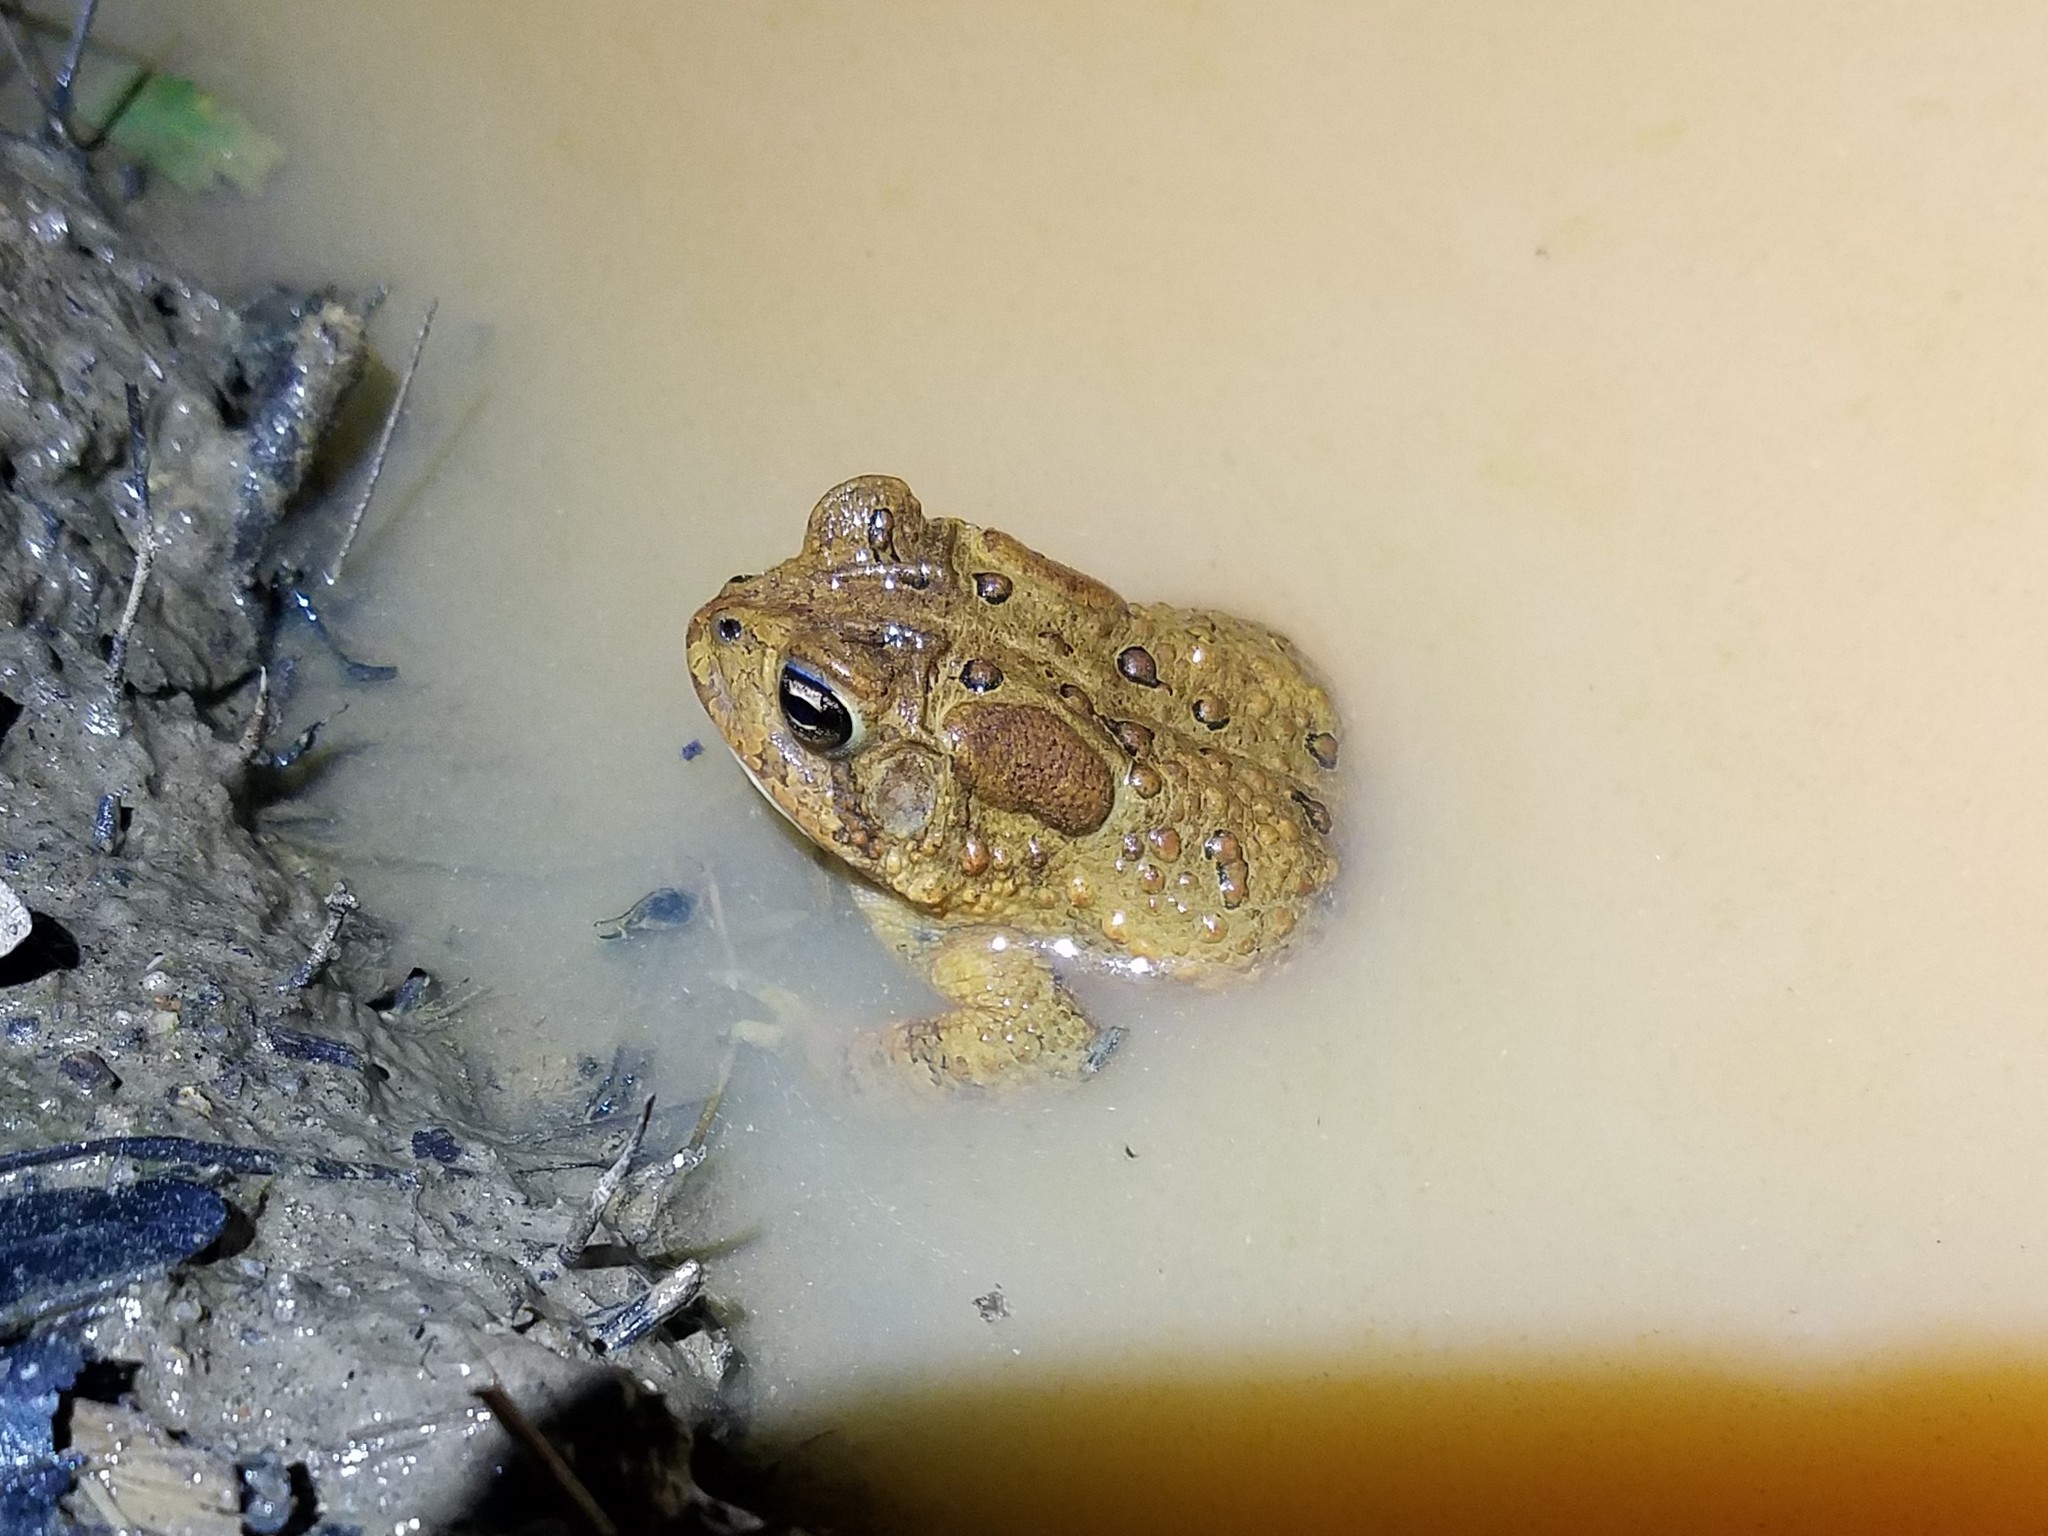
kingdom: Animalia
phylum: Chordata
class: Amphibia
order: Anura
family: Bufonidae
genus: Anaxyrus
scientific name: Anaxyrus americanus
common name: American toad
